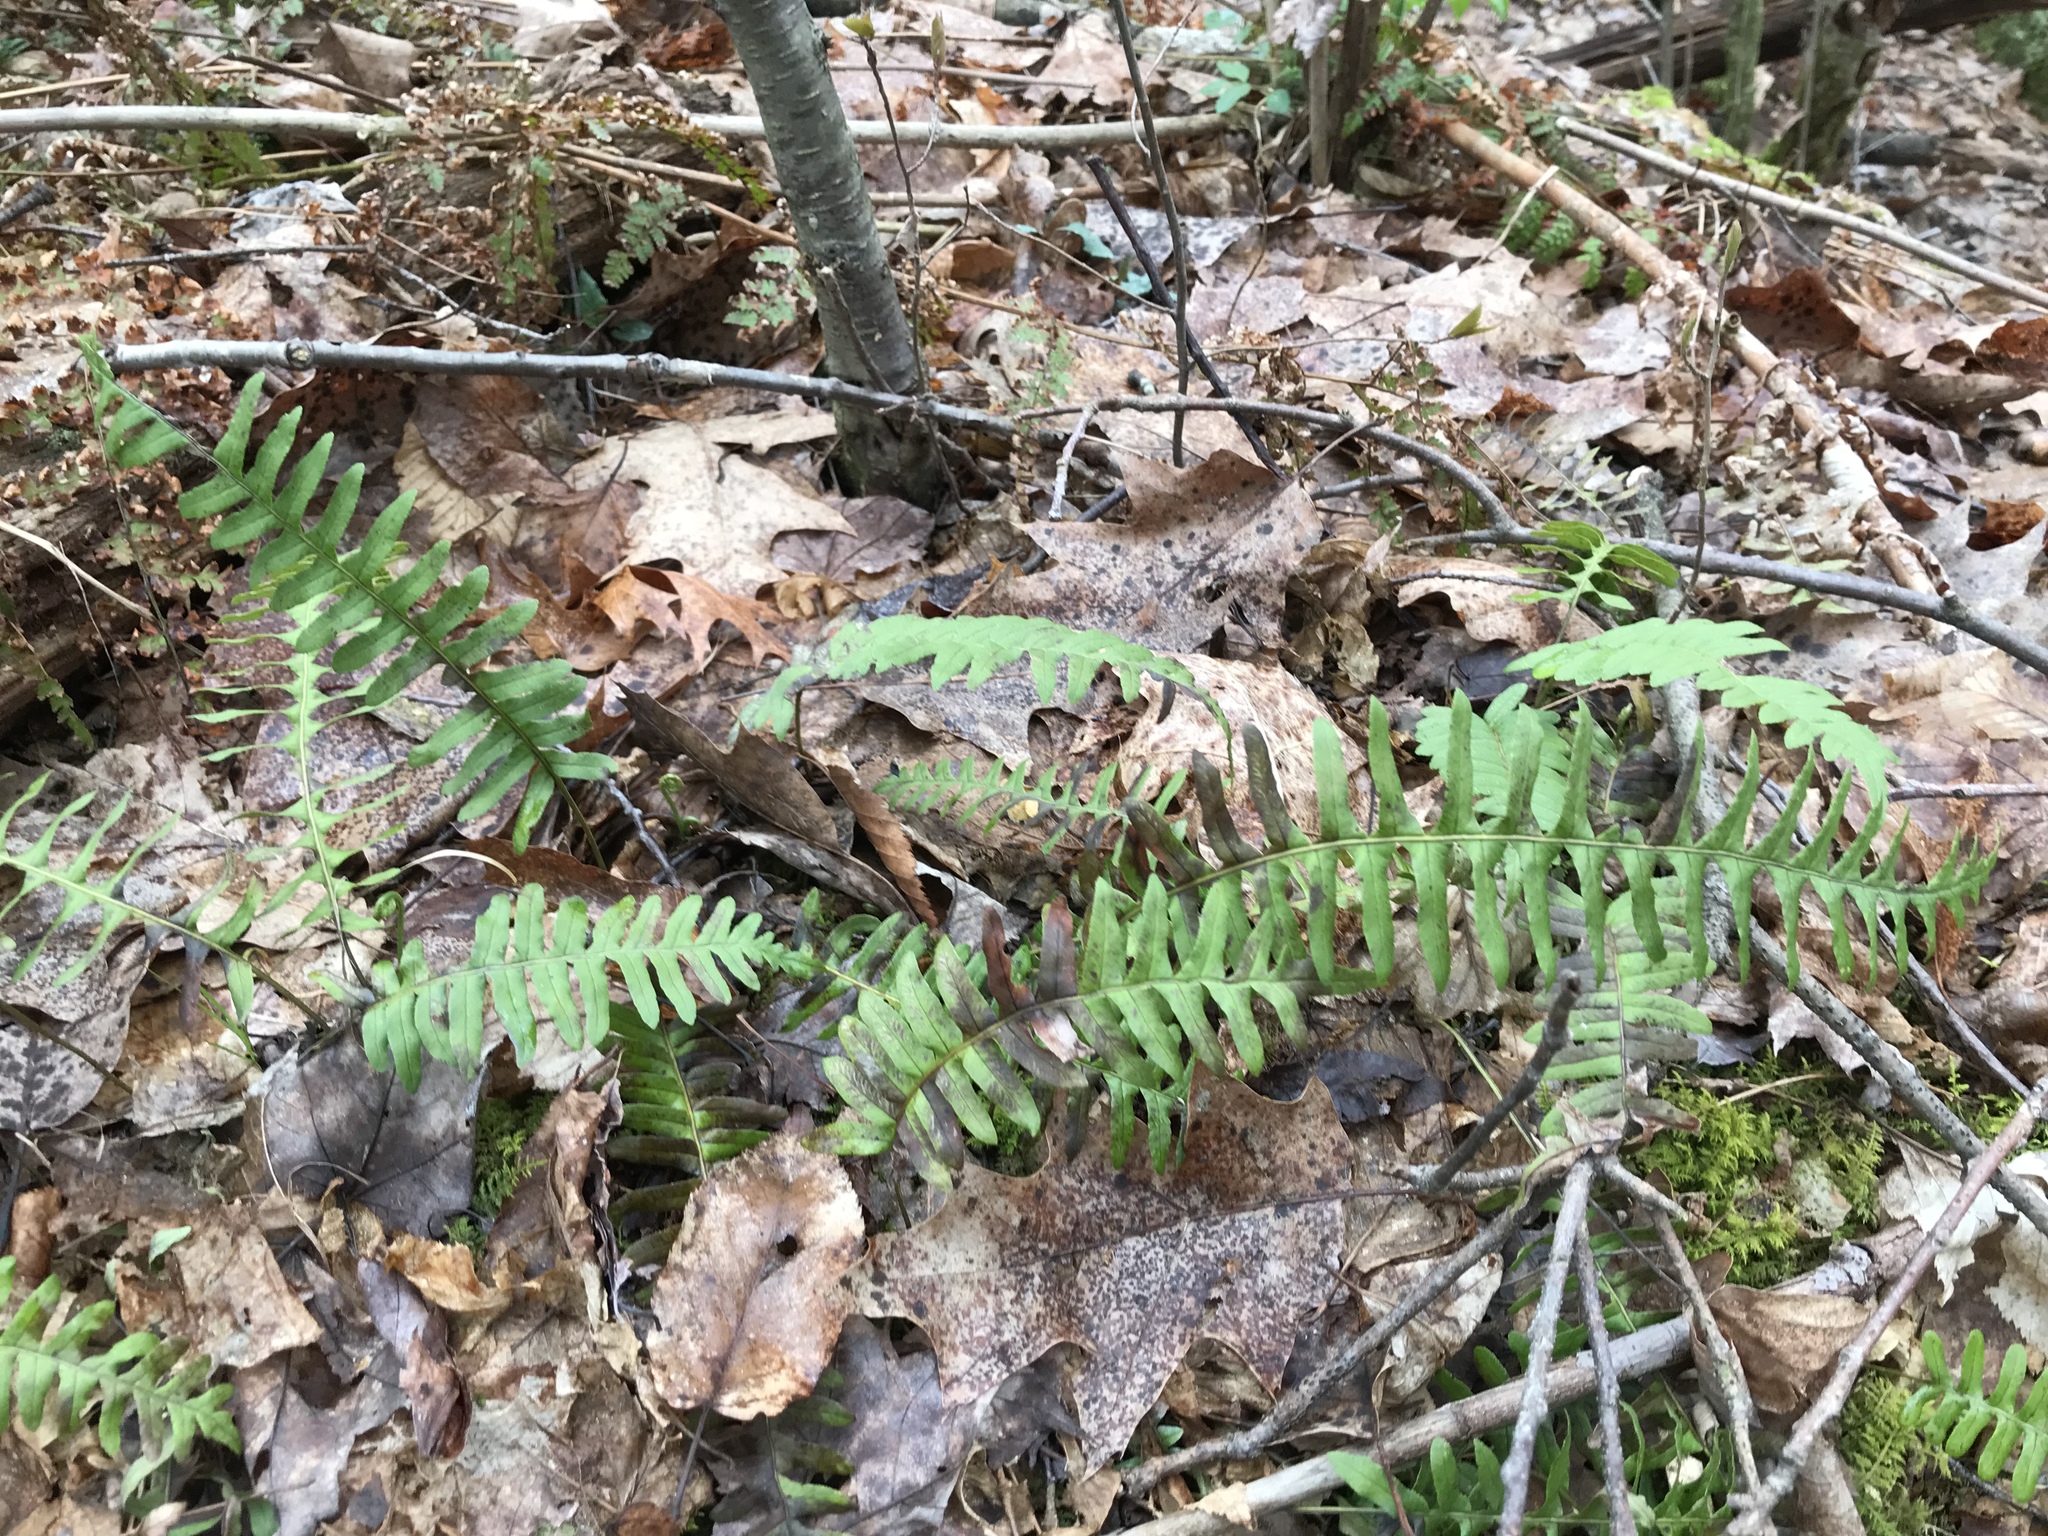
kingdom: Plantae
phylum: Tracheophyta
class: Polypodiopsida
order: Polypodiales
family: Polypodiaceae
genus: Polypodium
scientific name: Polypodium virginianum
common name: American wall fern
